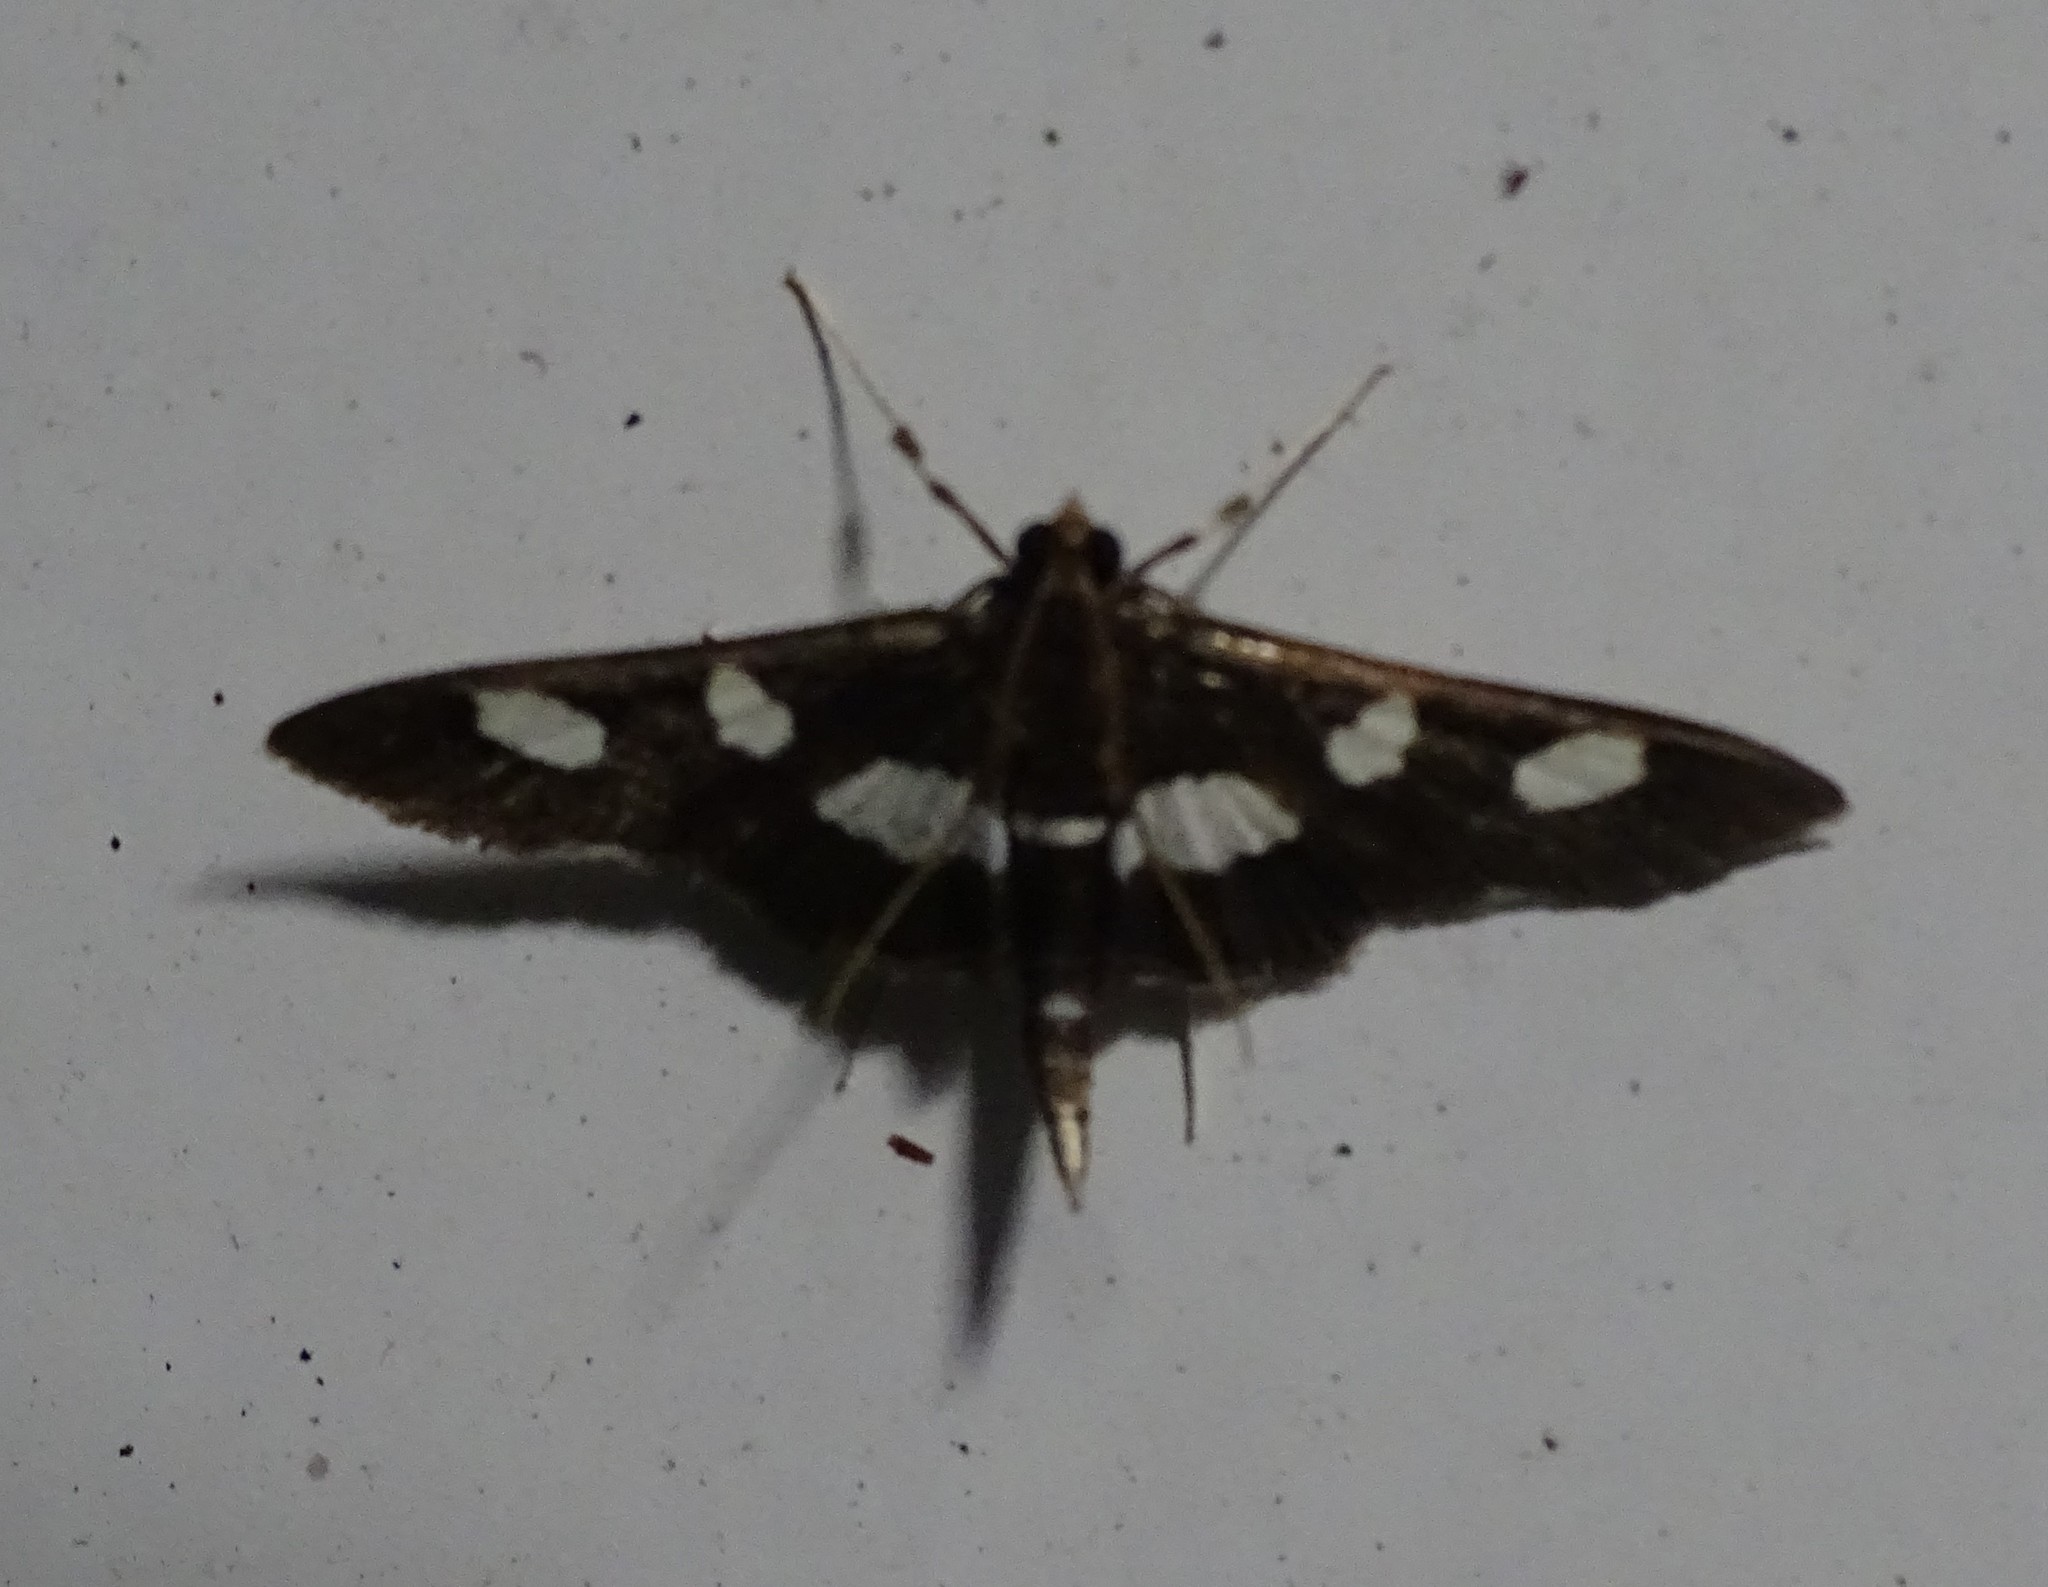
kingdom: Animalia
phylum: Arthropoda
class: Insecta
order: Lepidoptera
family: Crambidae
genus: Desmia
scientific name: Desmia
